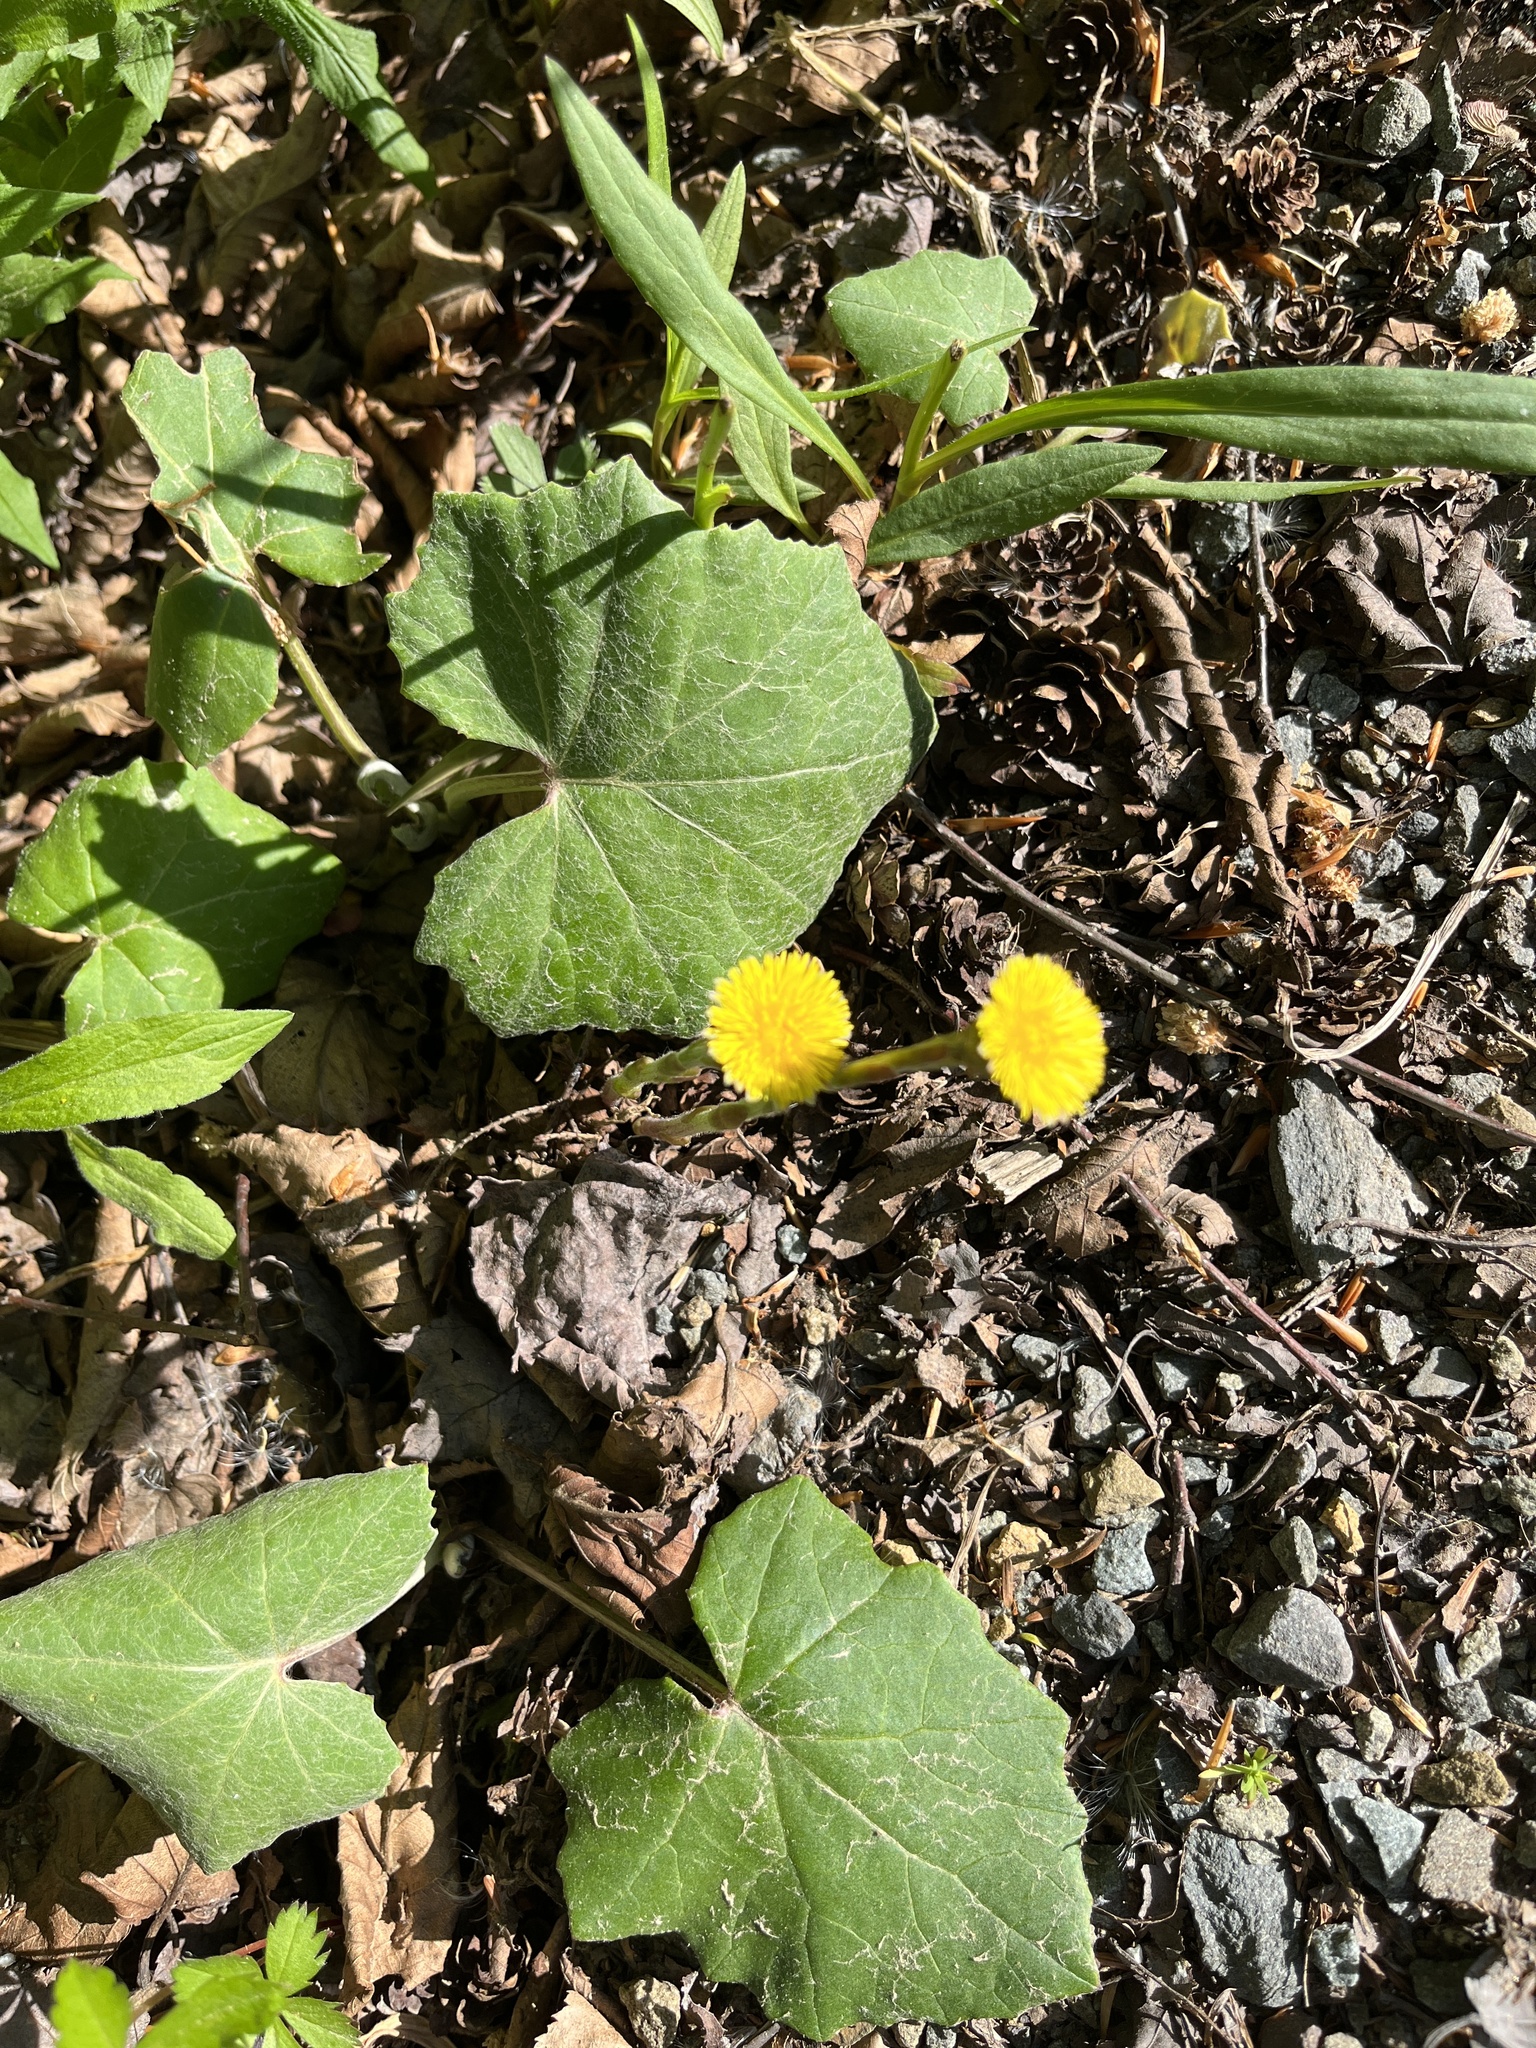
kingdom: Plantae
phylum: Tracheophyta
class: Magnoliopsida
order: Asterales
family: Asteraceae
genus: Tussilago
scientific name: Tussilago farfara
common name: Coltsfoot
